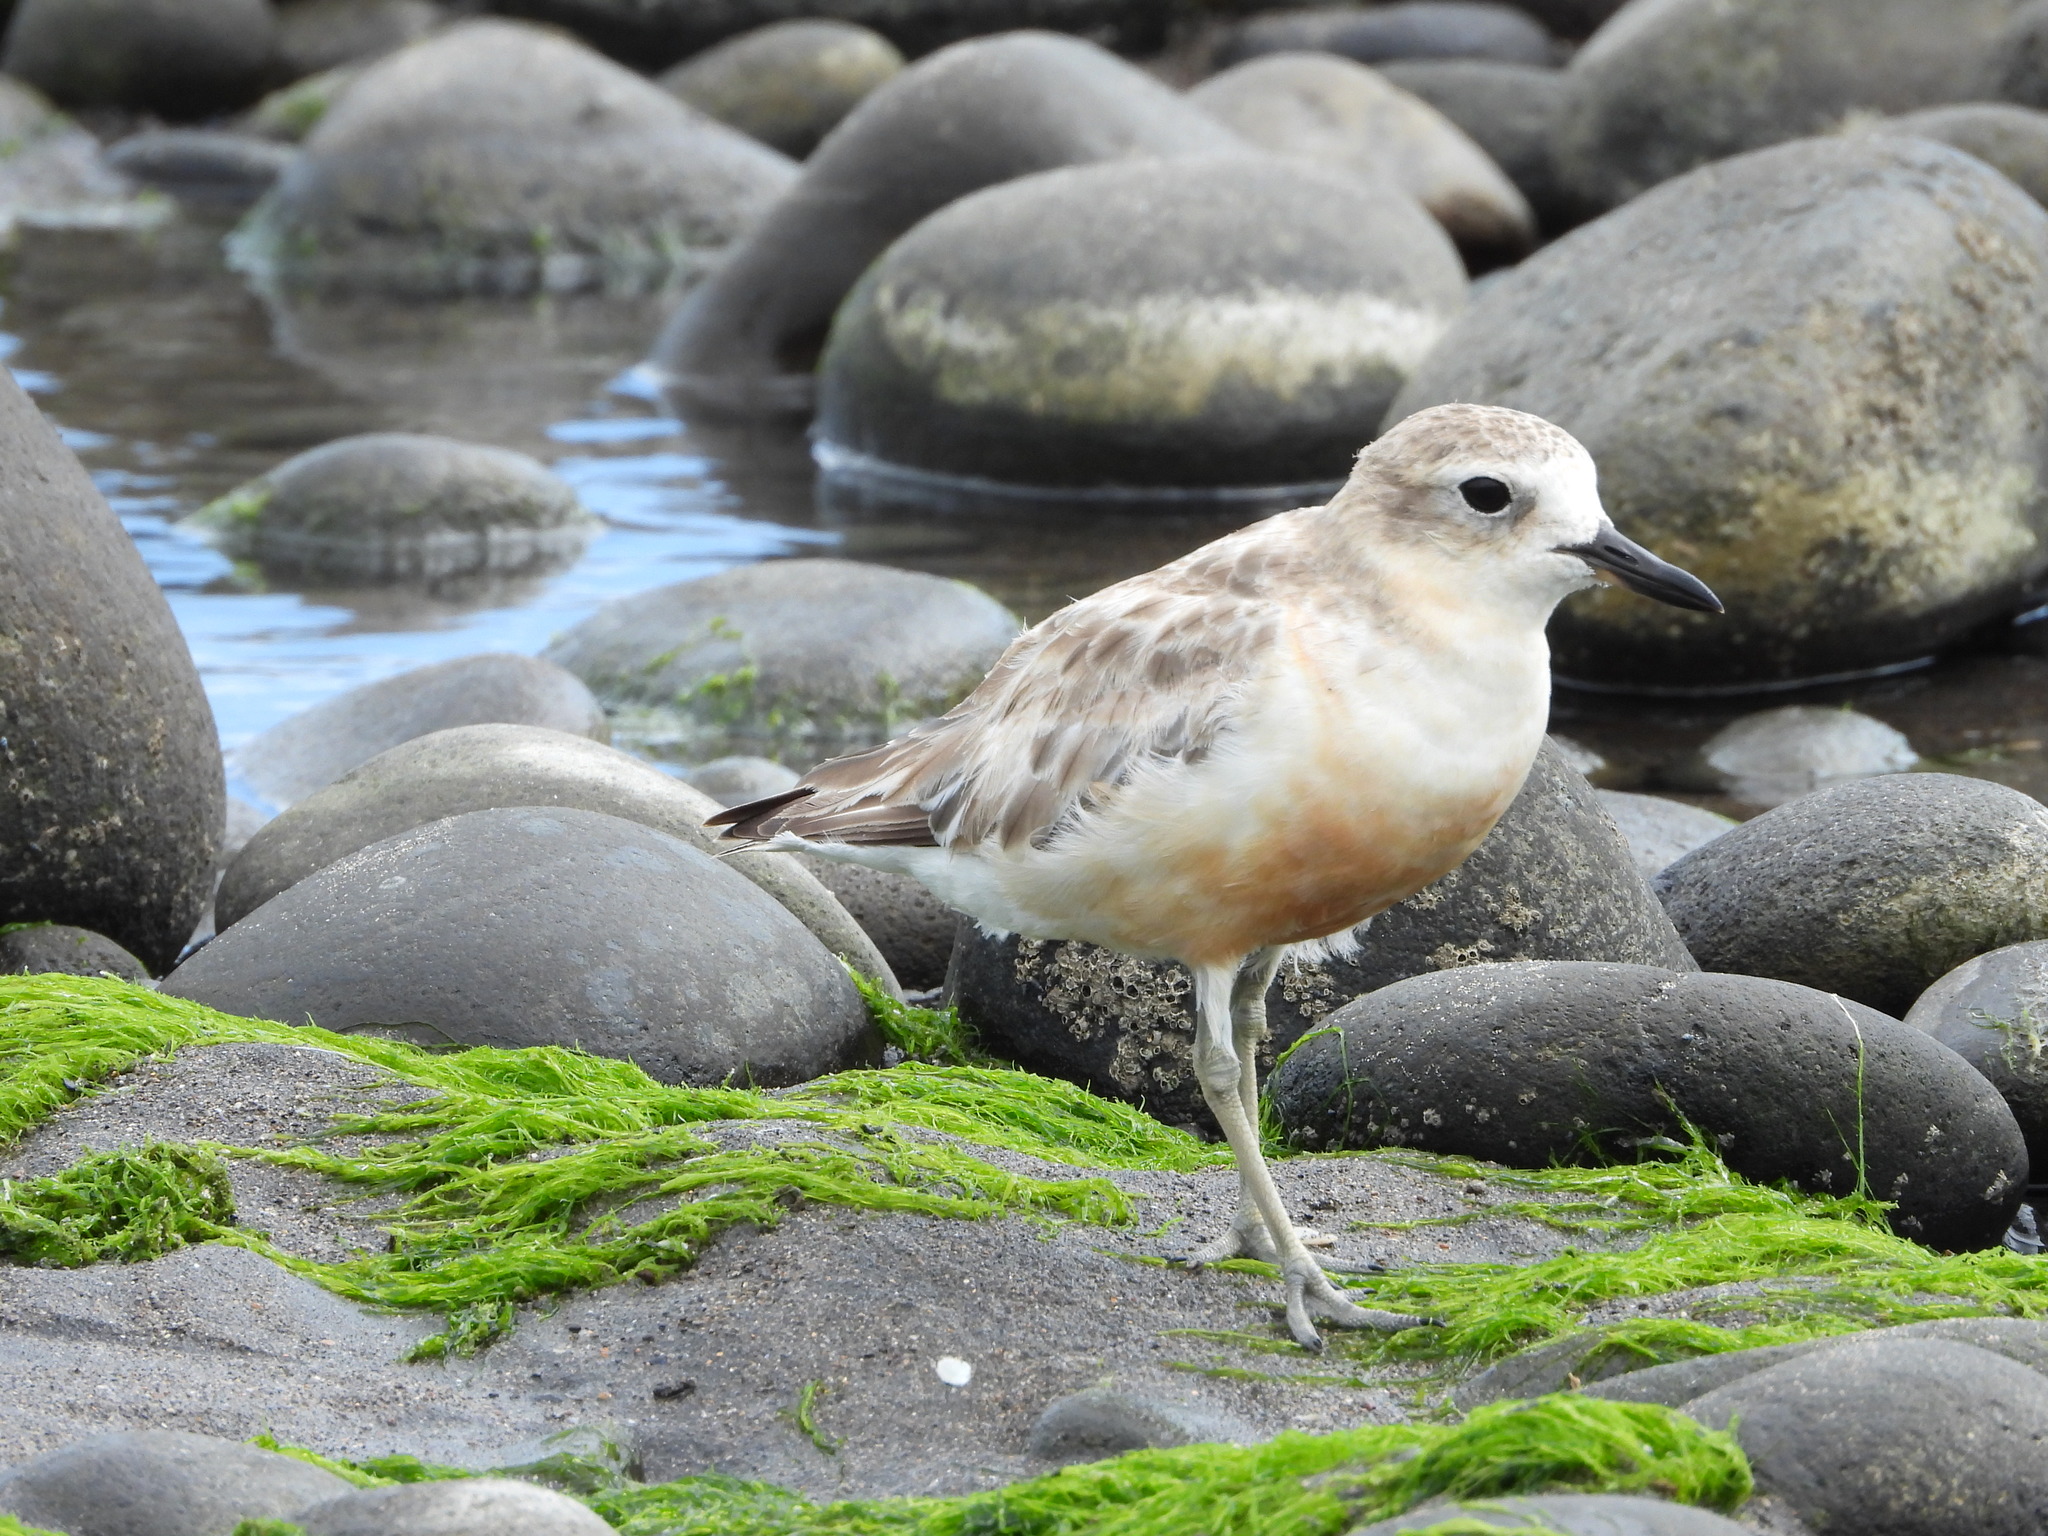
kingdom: Animalia
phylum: Chordata
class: Aves
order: Charadriiformes
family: Charadriidae
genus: Anarhynchus
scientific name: Anarhynchus
